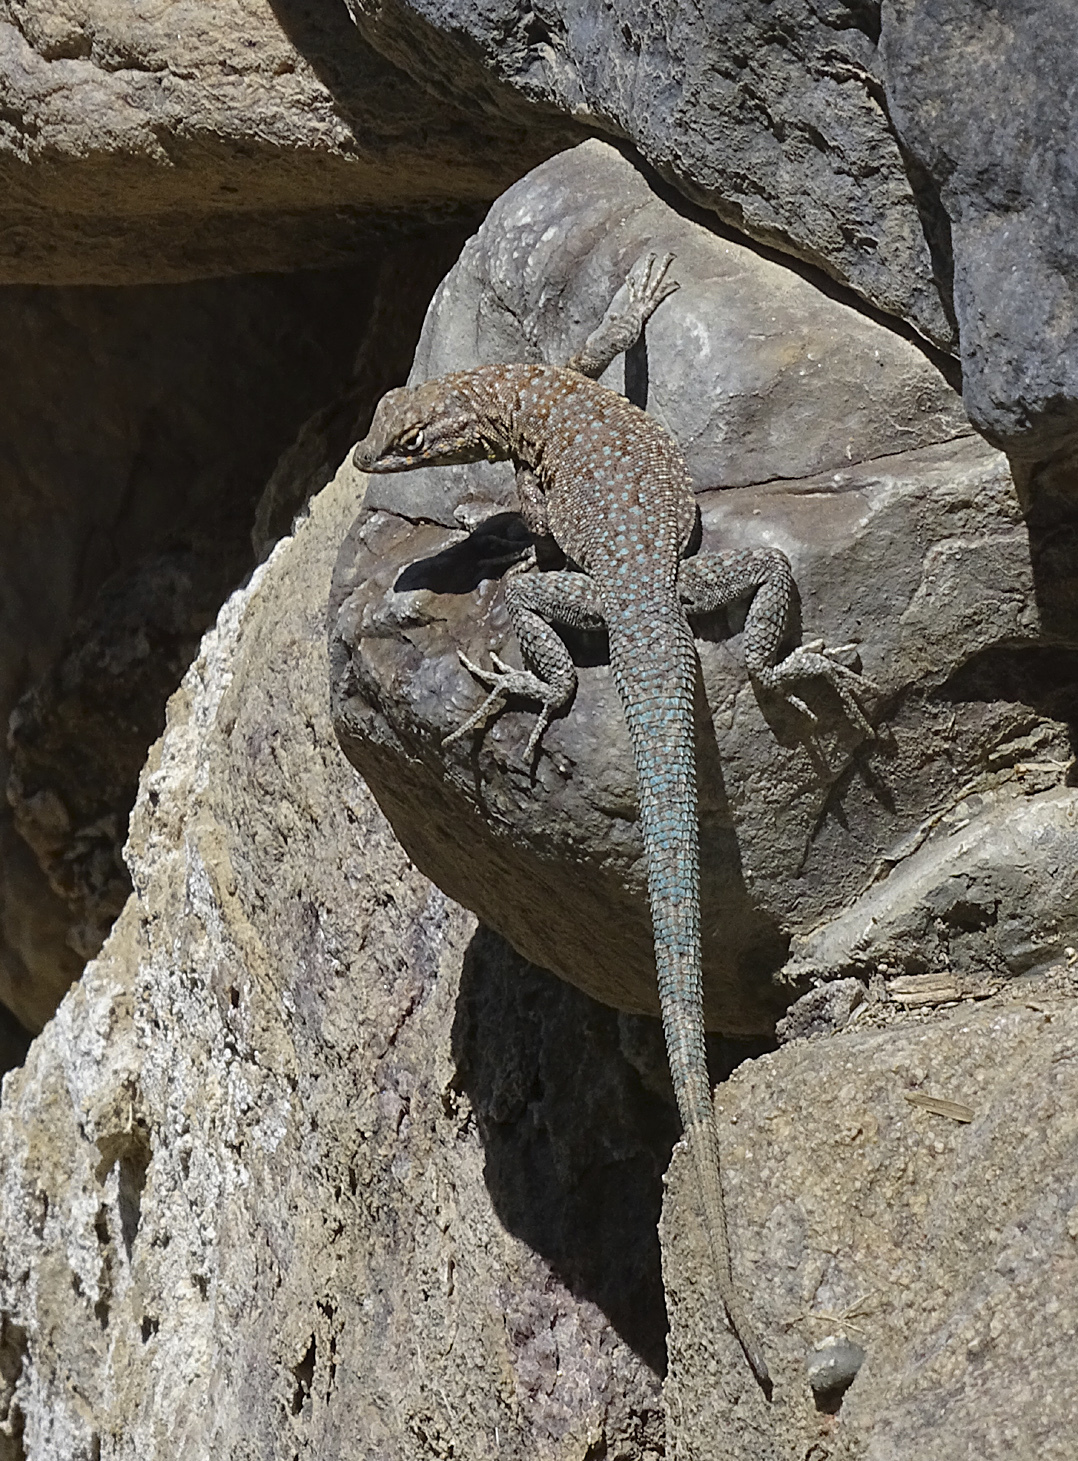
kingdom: Animalia
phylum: Chordata
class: Squamata
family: Phrynosomatidae
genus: Uta
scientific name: Uta stansburiana
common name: Side-blotched lizard
